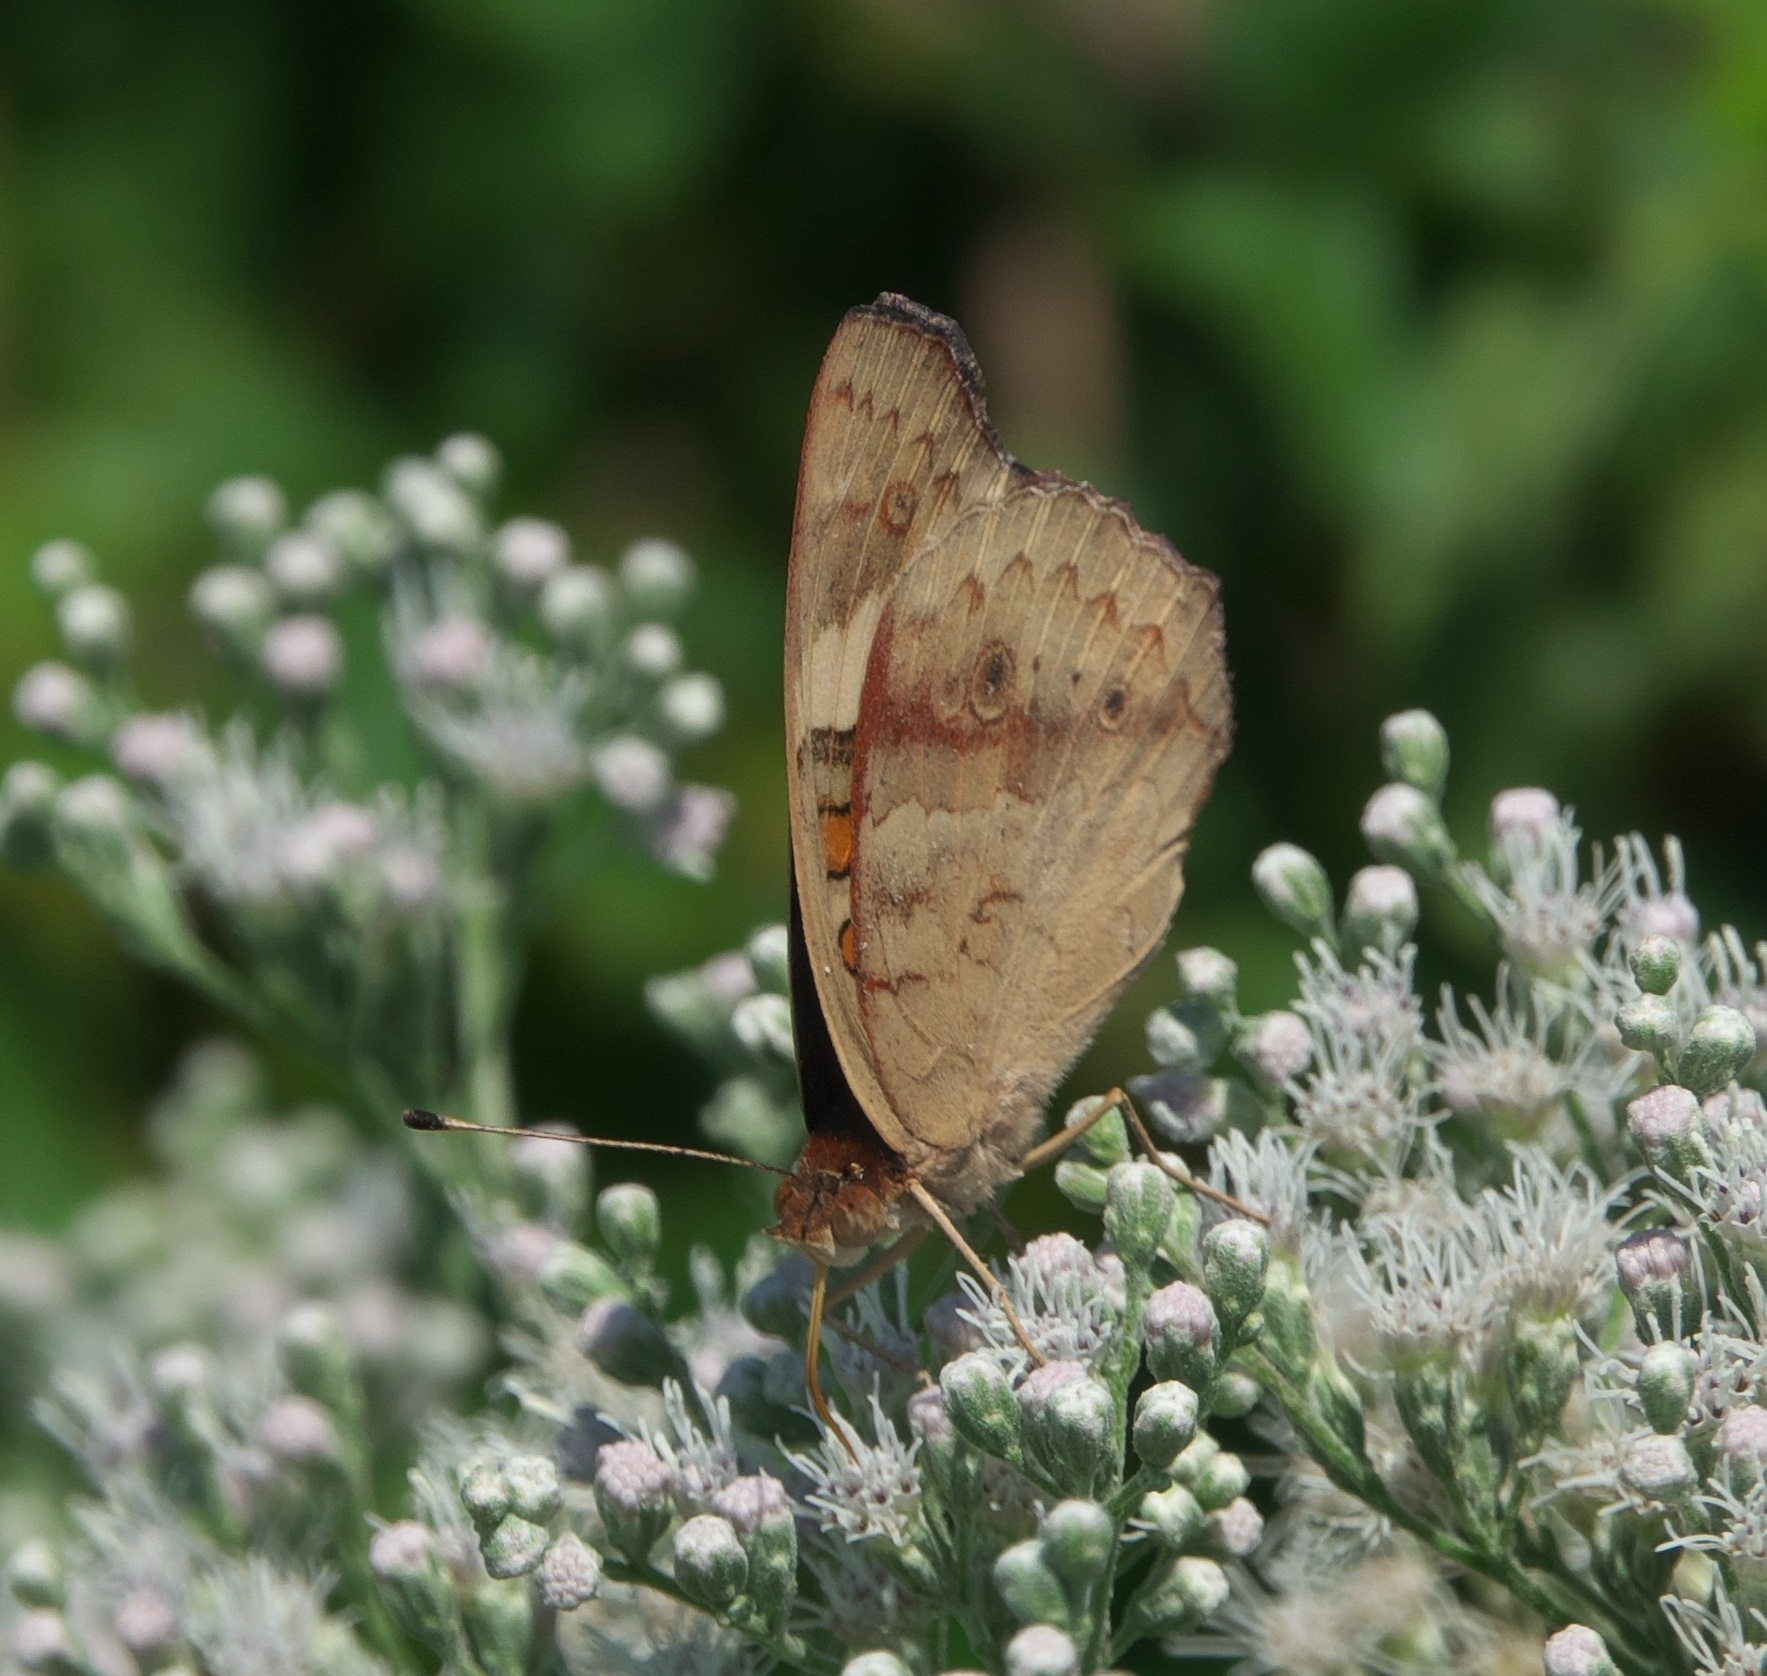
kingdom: Animalia
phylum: Arthropoda
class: Insecta
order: Lepidoptera
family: Nymphalidae
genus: Junonia
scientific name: Junonia coenia
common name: Common buckeye
